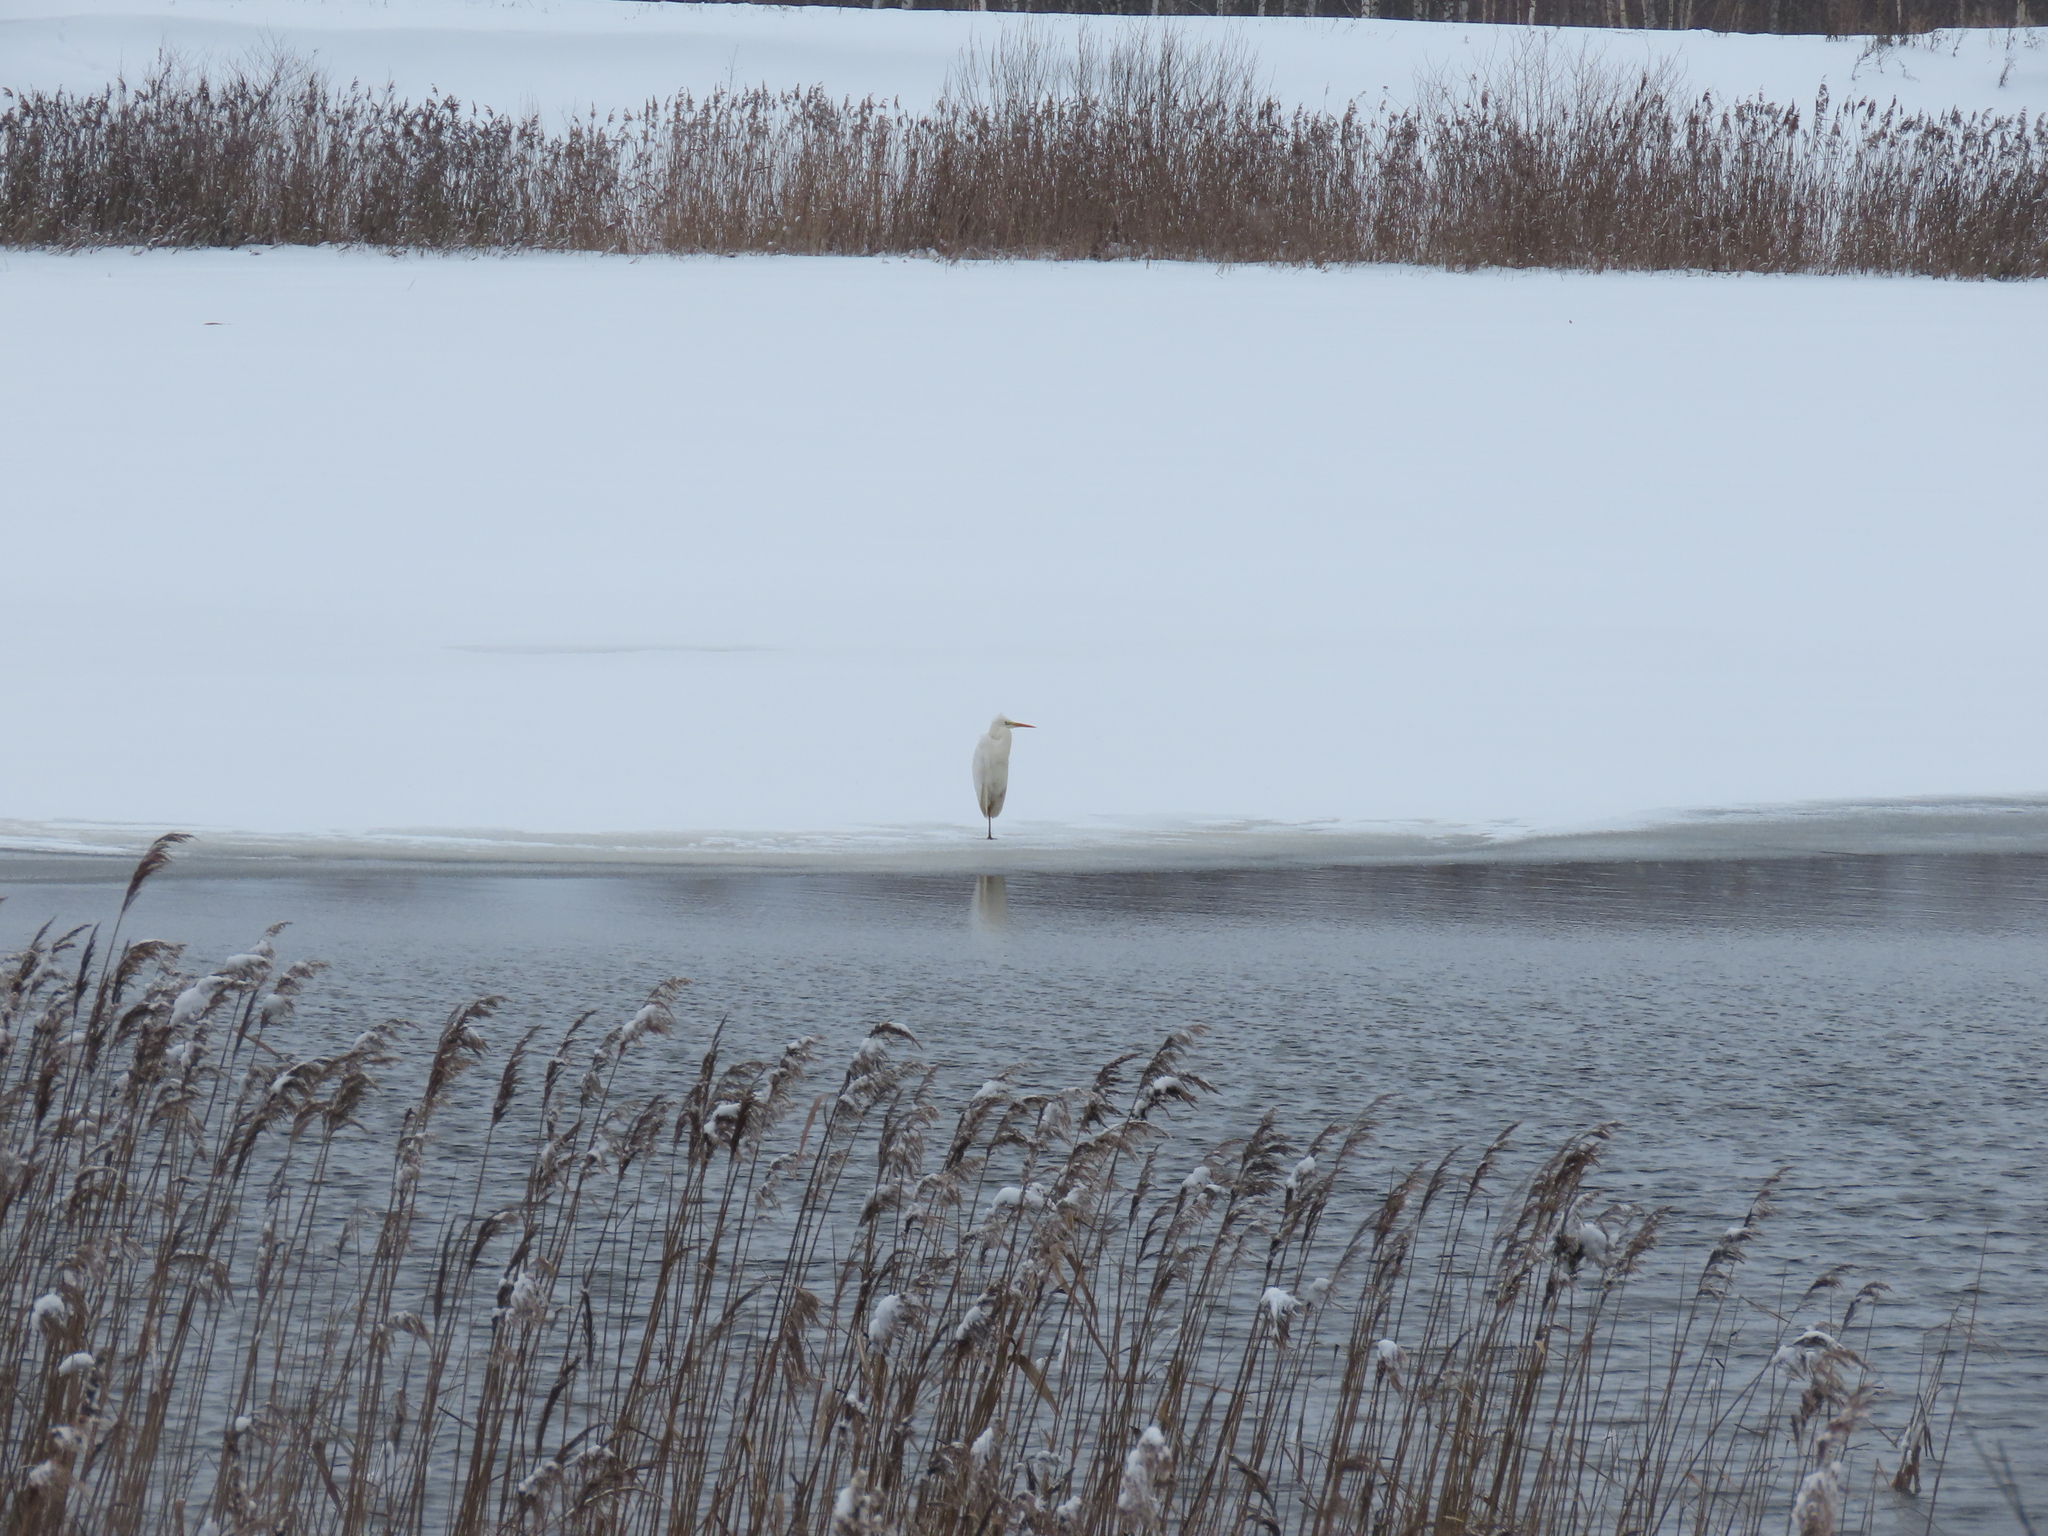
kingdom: Animalia
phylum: Chordata
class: Aves
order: Pelecaniformes
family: Ardeidae
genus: Ardea
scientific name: Ardea alba
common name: Great egret
